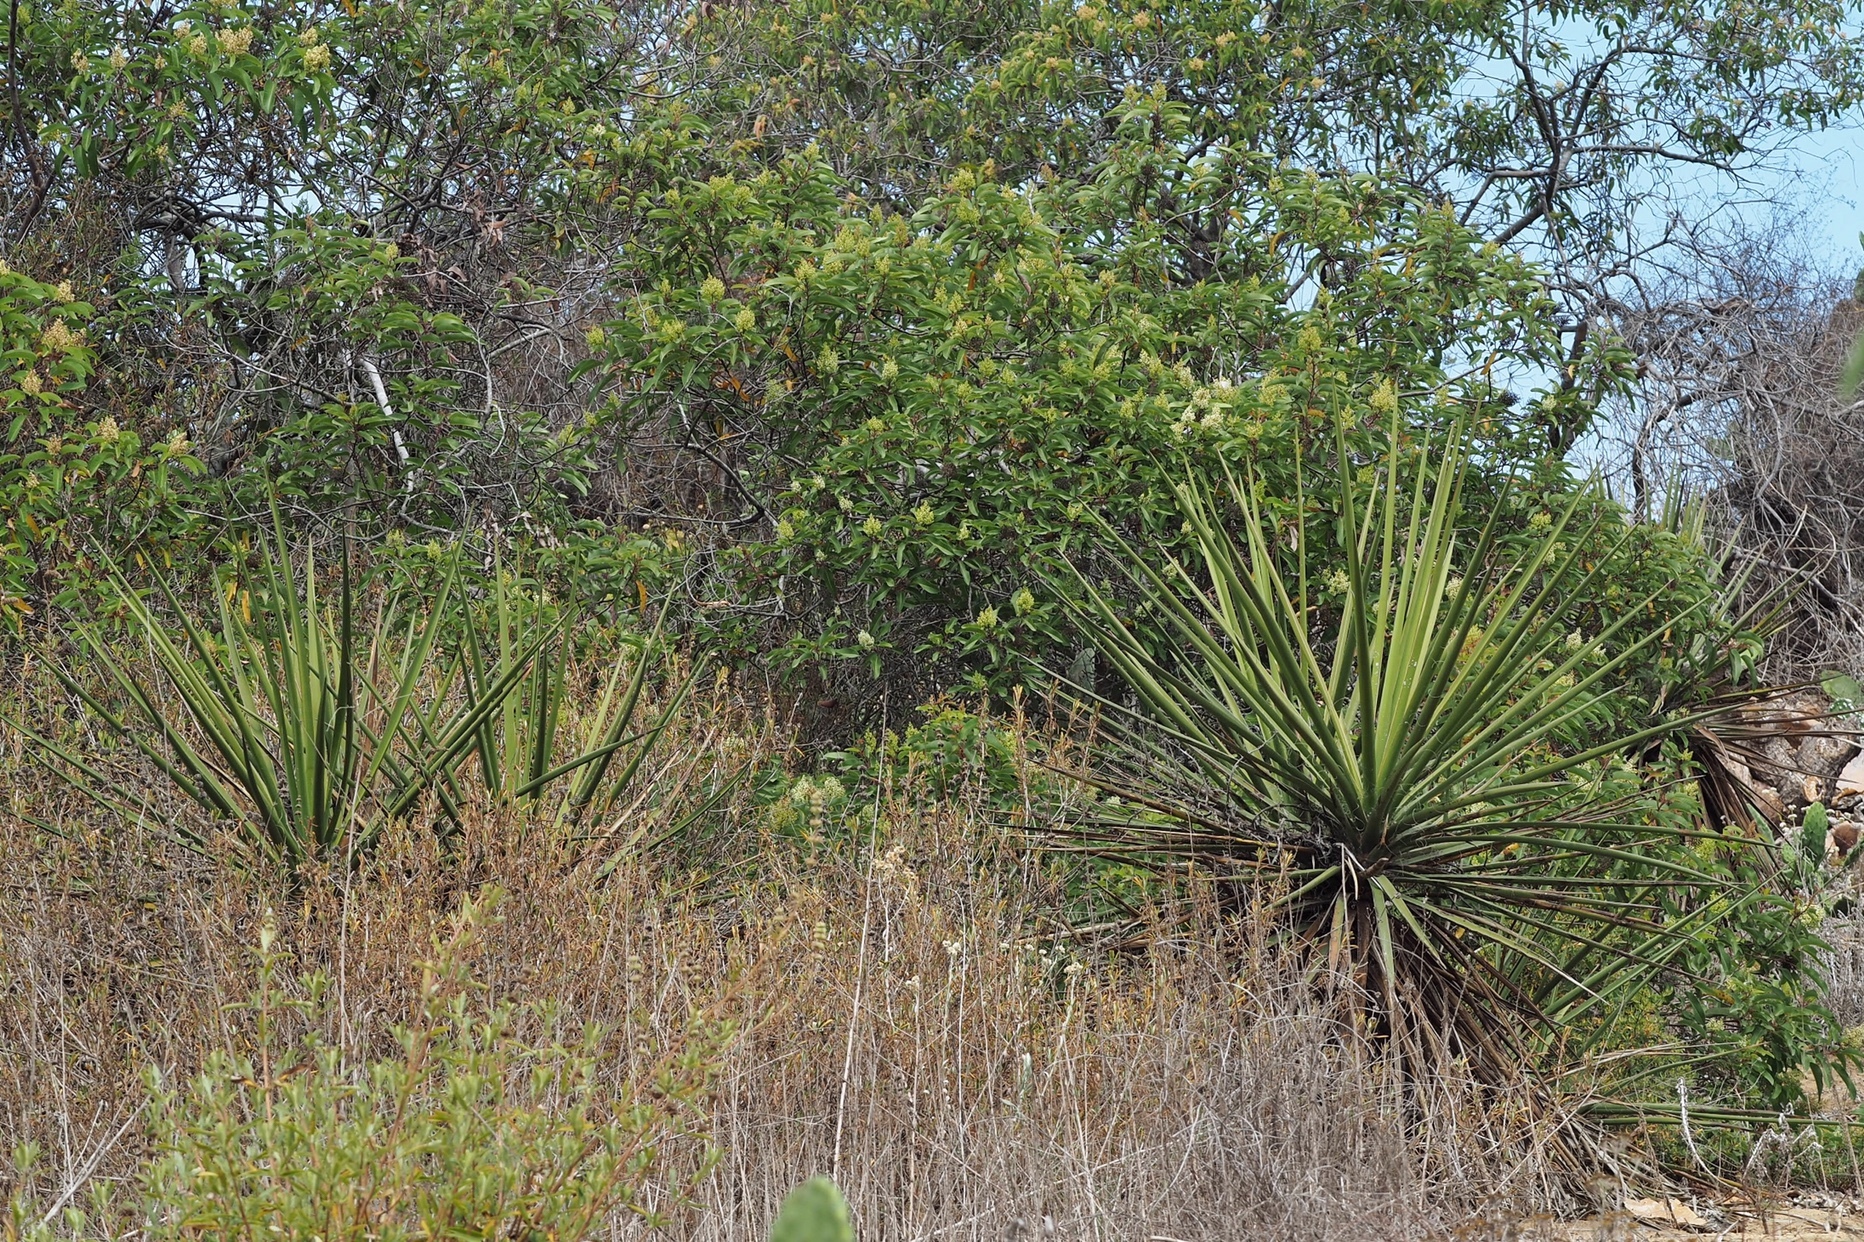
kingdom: Plantae
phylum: Tracheophyta
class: Liliopsida
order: Asparagales
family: Asparagaceae
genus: Yucca
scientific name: Yucca schidigera
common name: Mojave yucca
